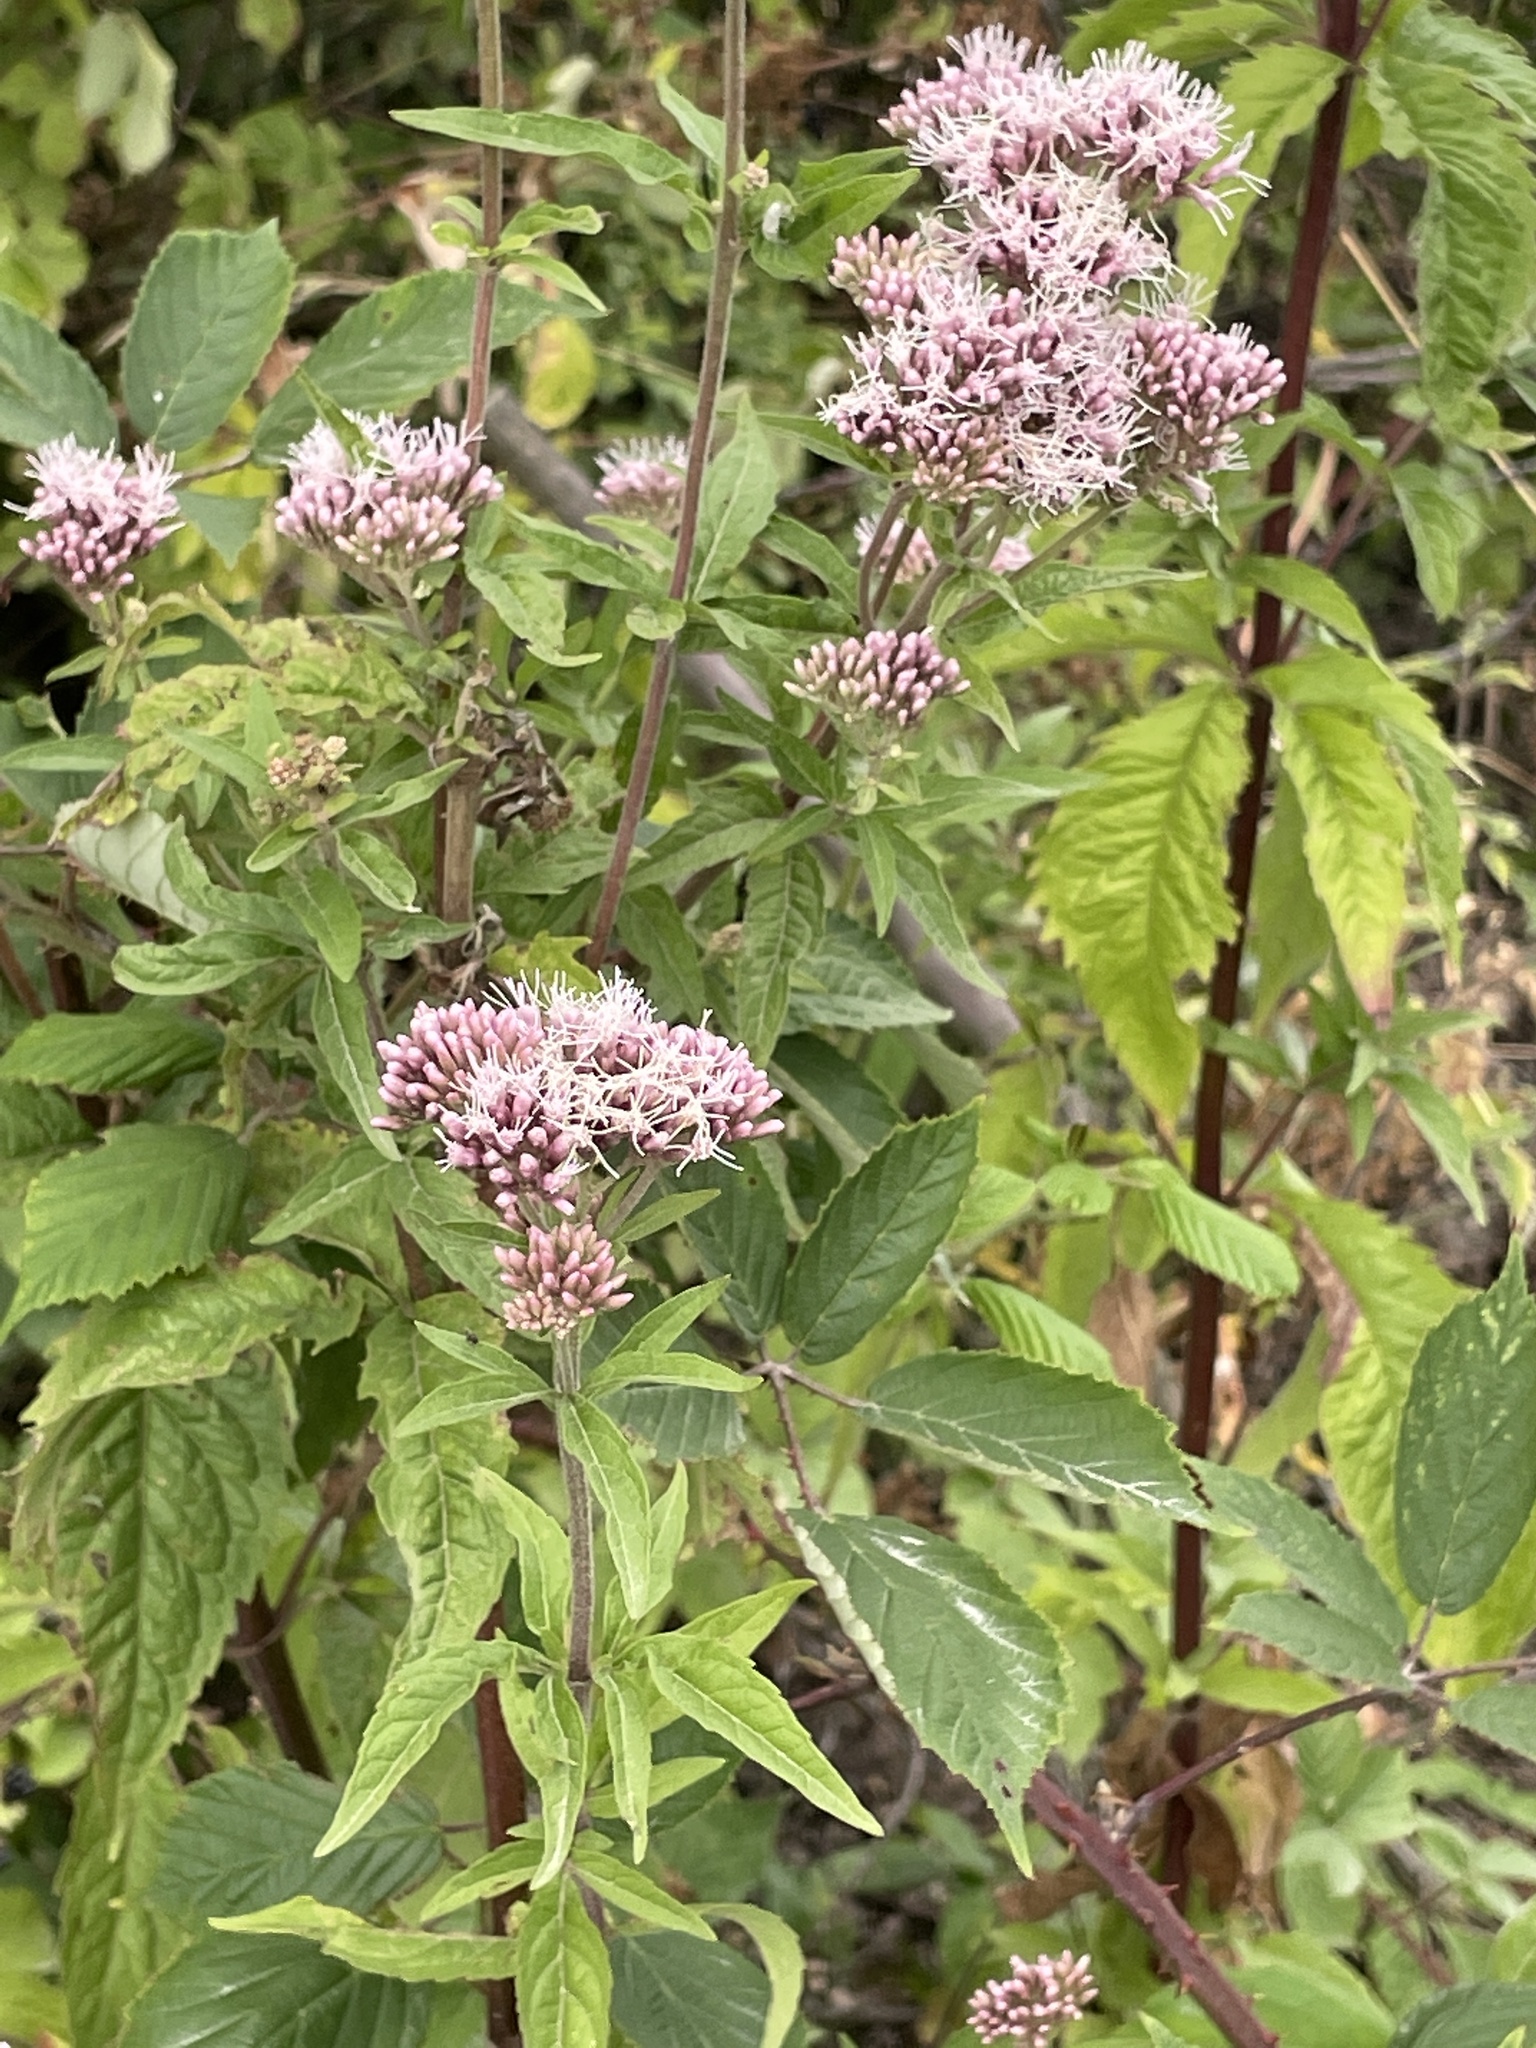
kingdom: Plantae
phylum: Tracheophyta
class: Magnoliopsida
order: Asterales
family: Asteraceae
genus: Eupatorium
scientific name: Eupatorium cannabinum
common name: Hemp-agrimony
